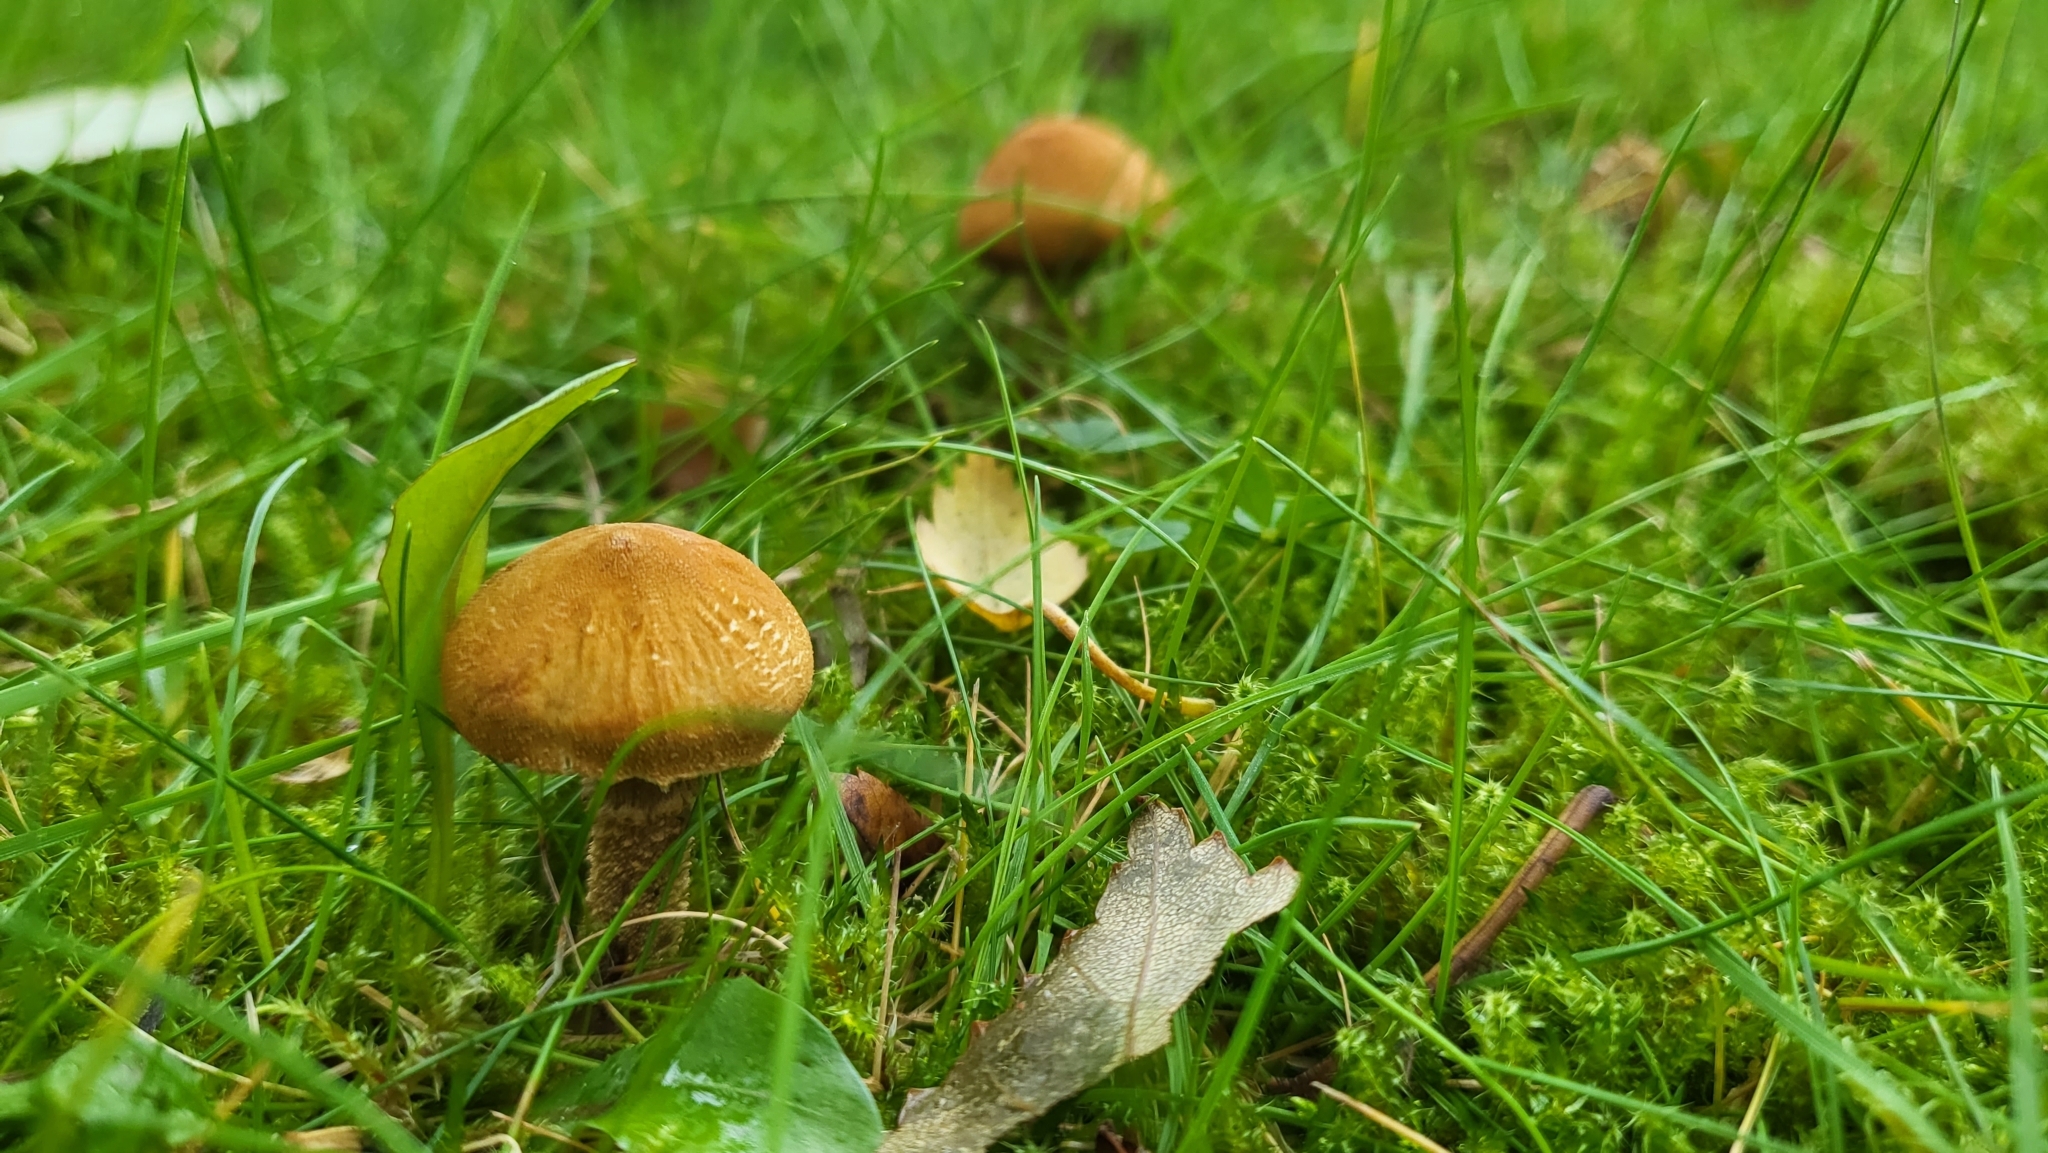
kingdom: Fungi
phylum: Basidiomycota
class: Agaricomycetes
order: Agaricales
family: Tricholomataceae
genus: Cystoderma
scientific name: Cystoderma amianthinum
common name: Earthy powdercap
